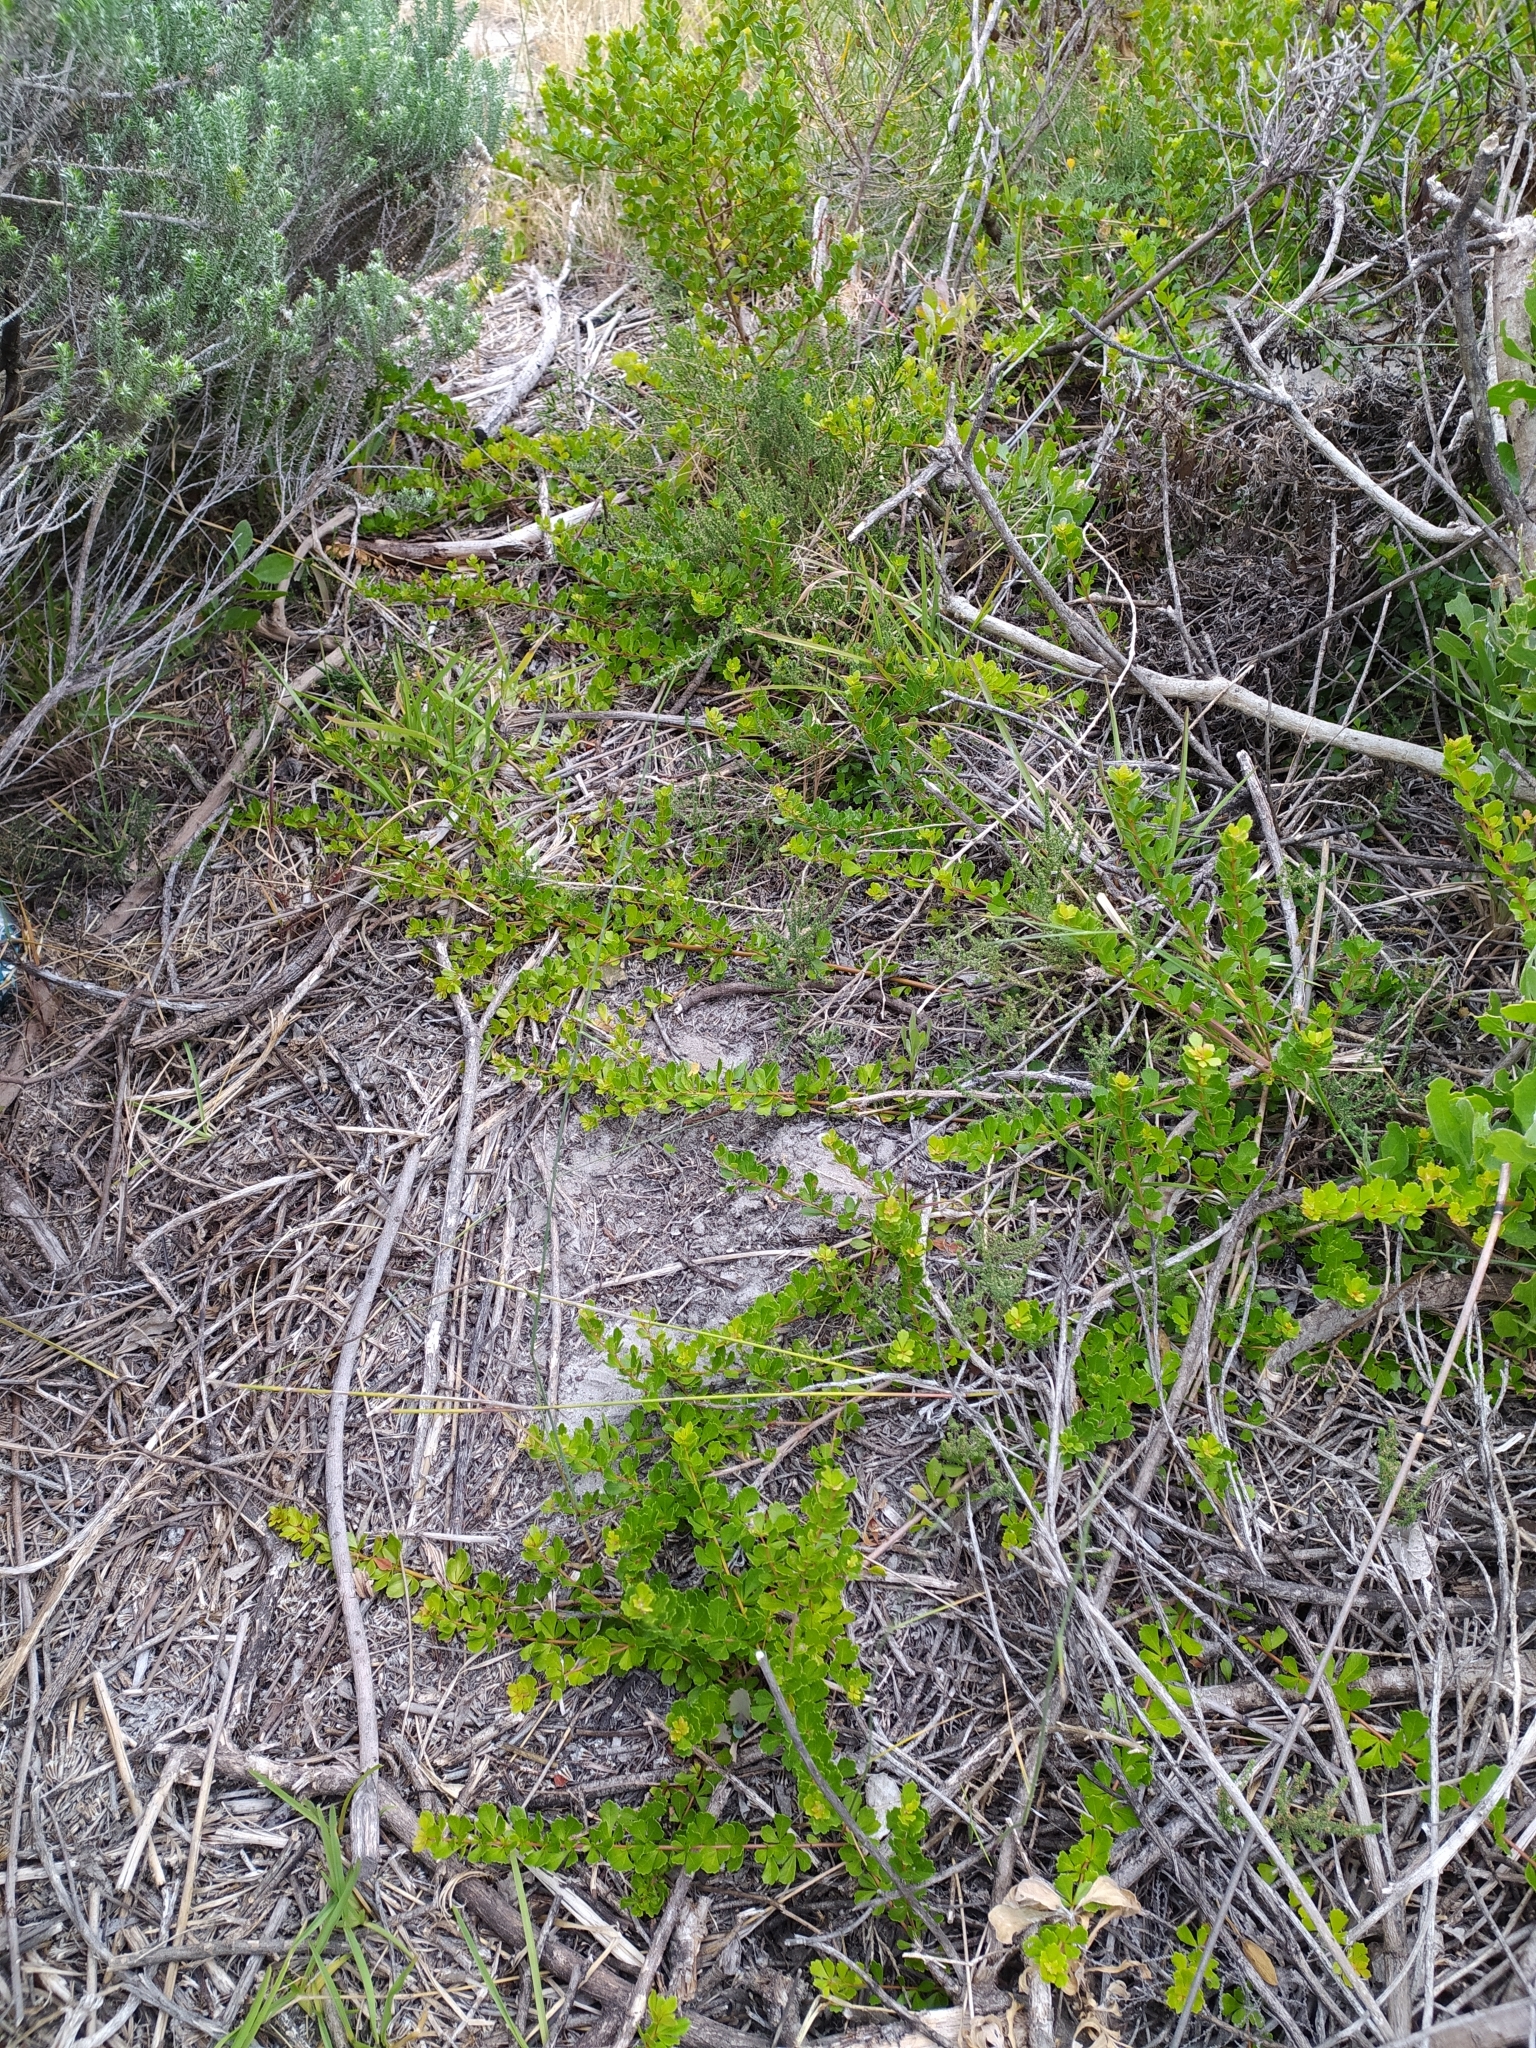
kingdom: Plantae
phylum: Tracheophyta
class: Magnoliopsida
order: Sapindales
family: Anacardiaceae
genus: Searsia
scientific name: Searsia crenata
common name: Crowberry
